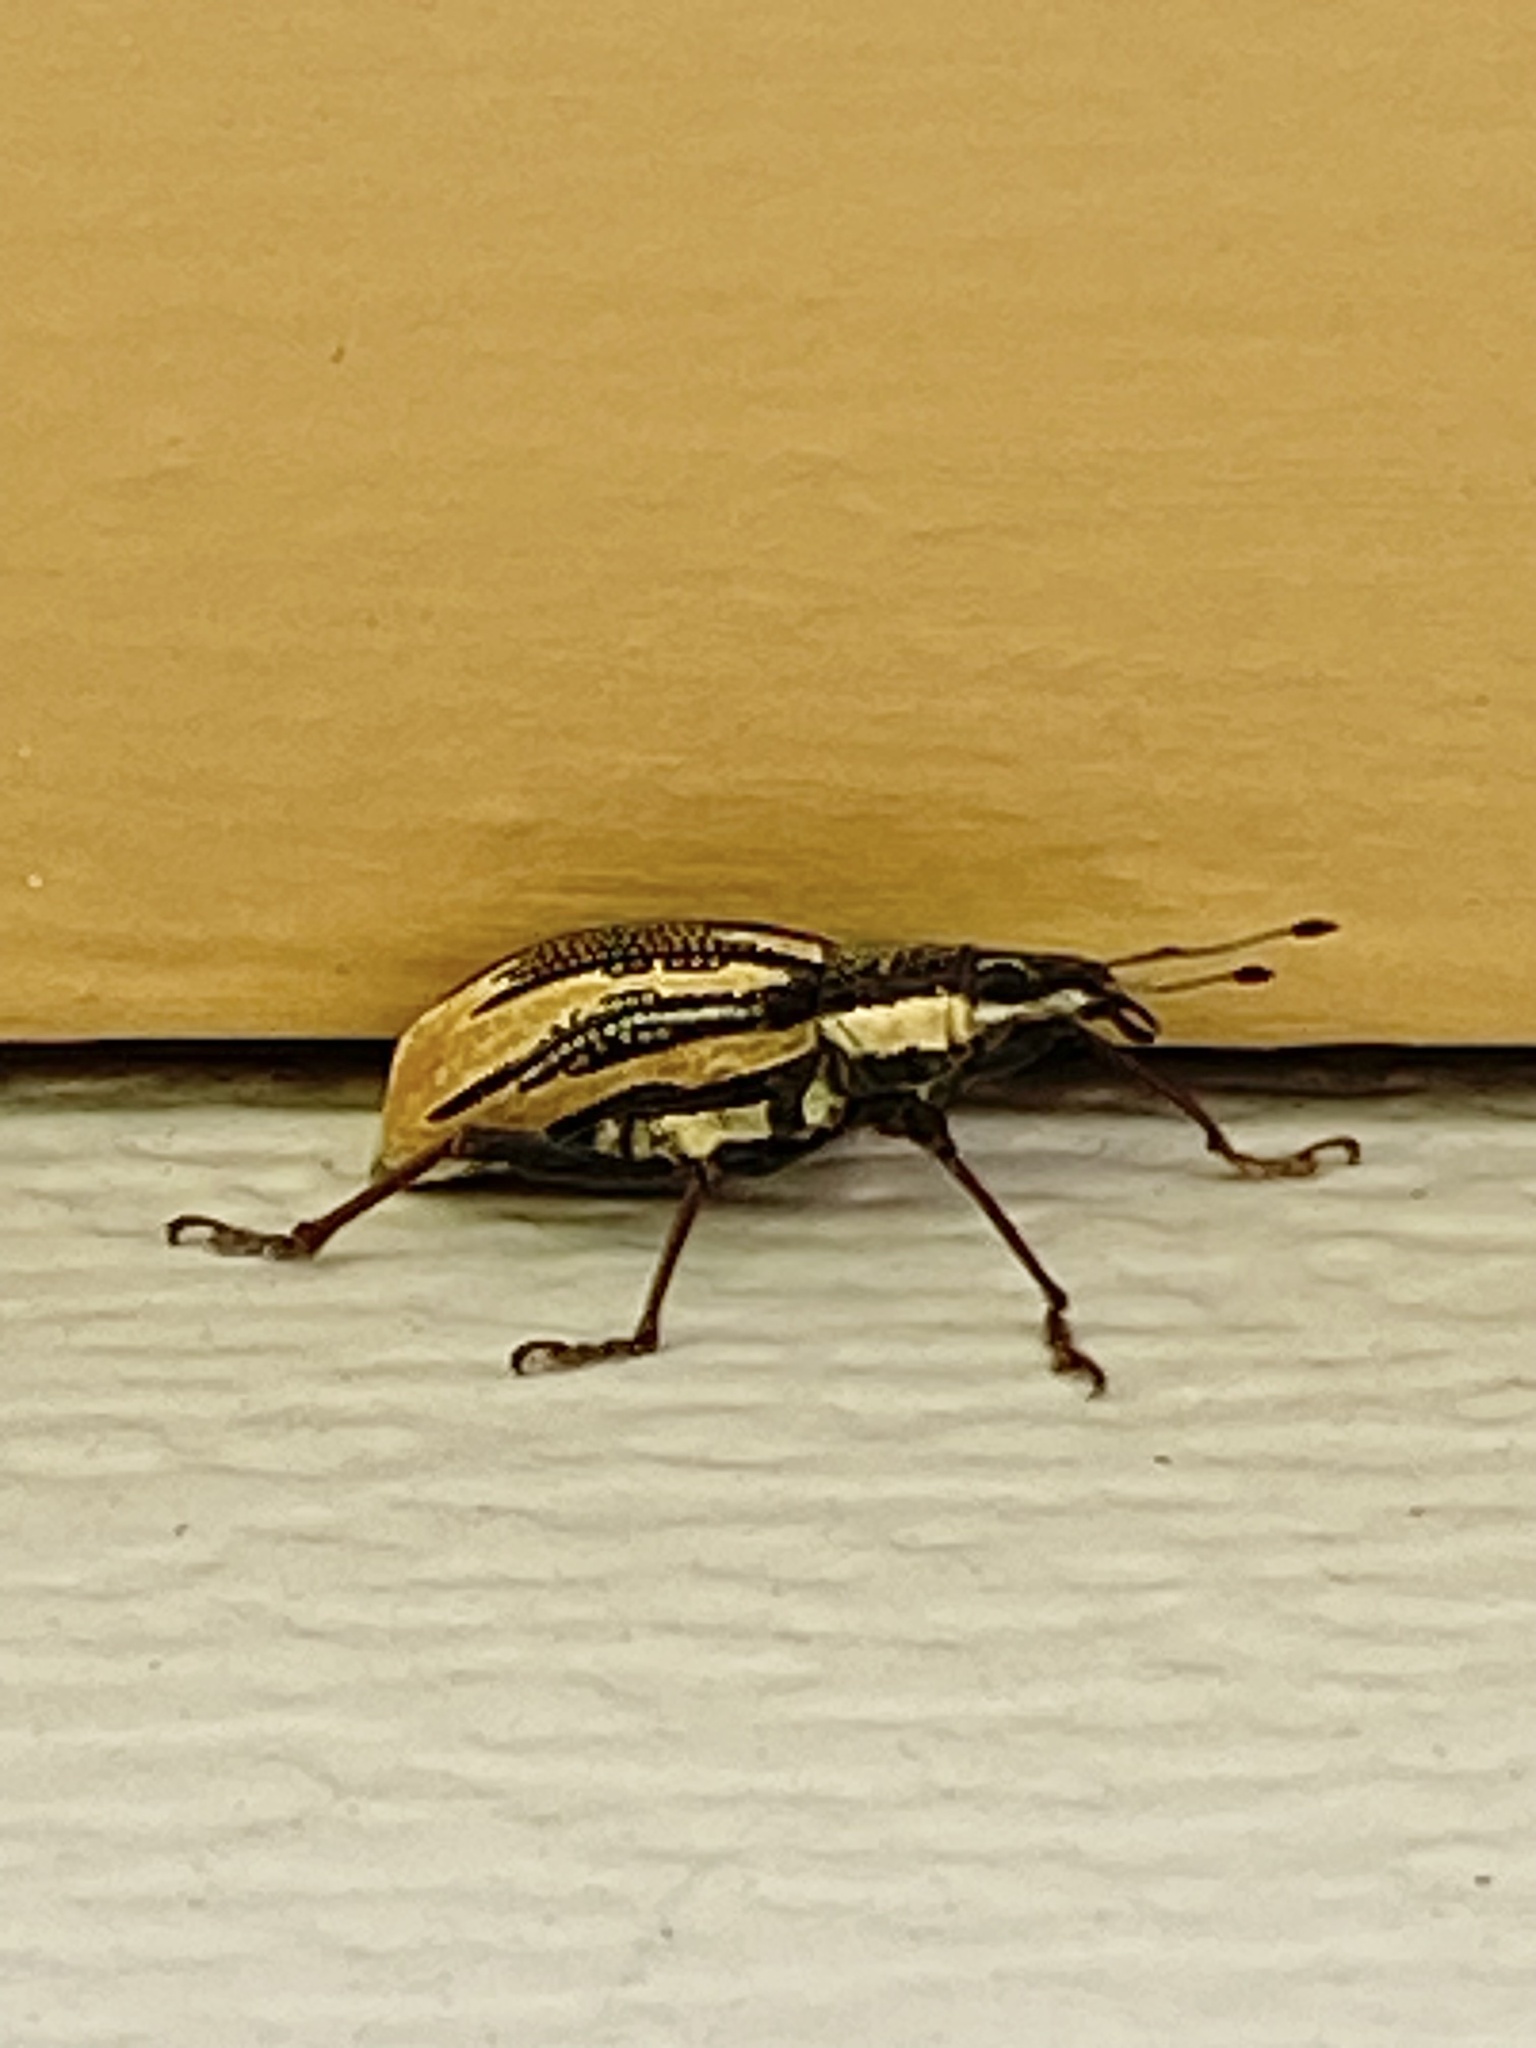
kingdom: Animalia
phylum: Arthropoda
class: Insecta
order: Coleoptera
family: Curculionidae
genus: Diaprepes
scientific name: Diaprepes abbreviatus
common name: Root weevil
